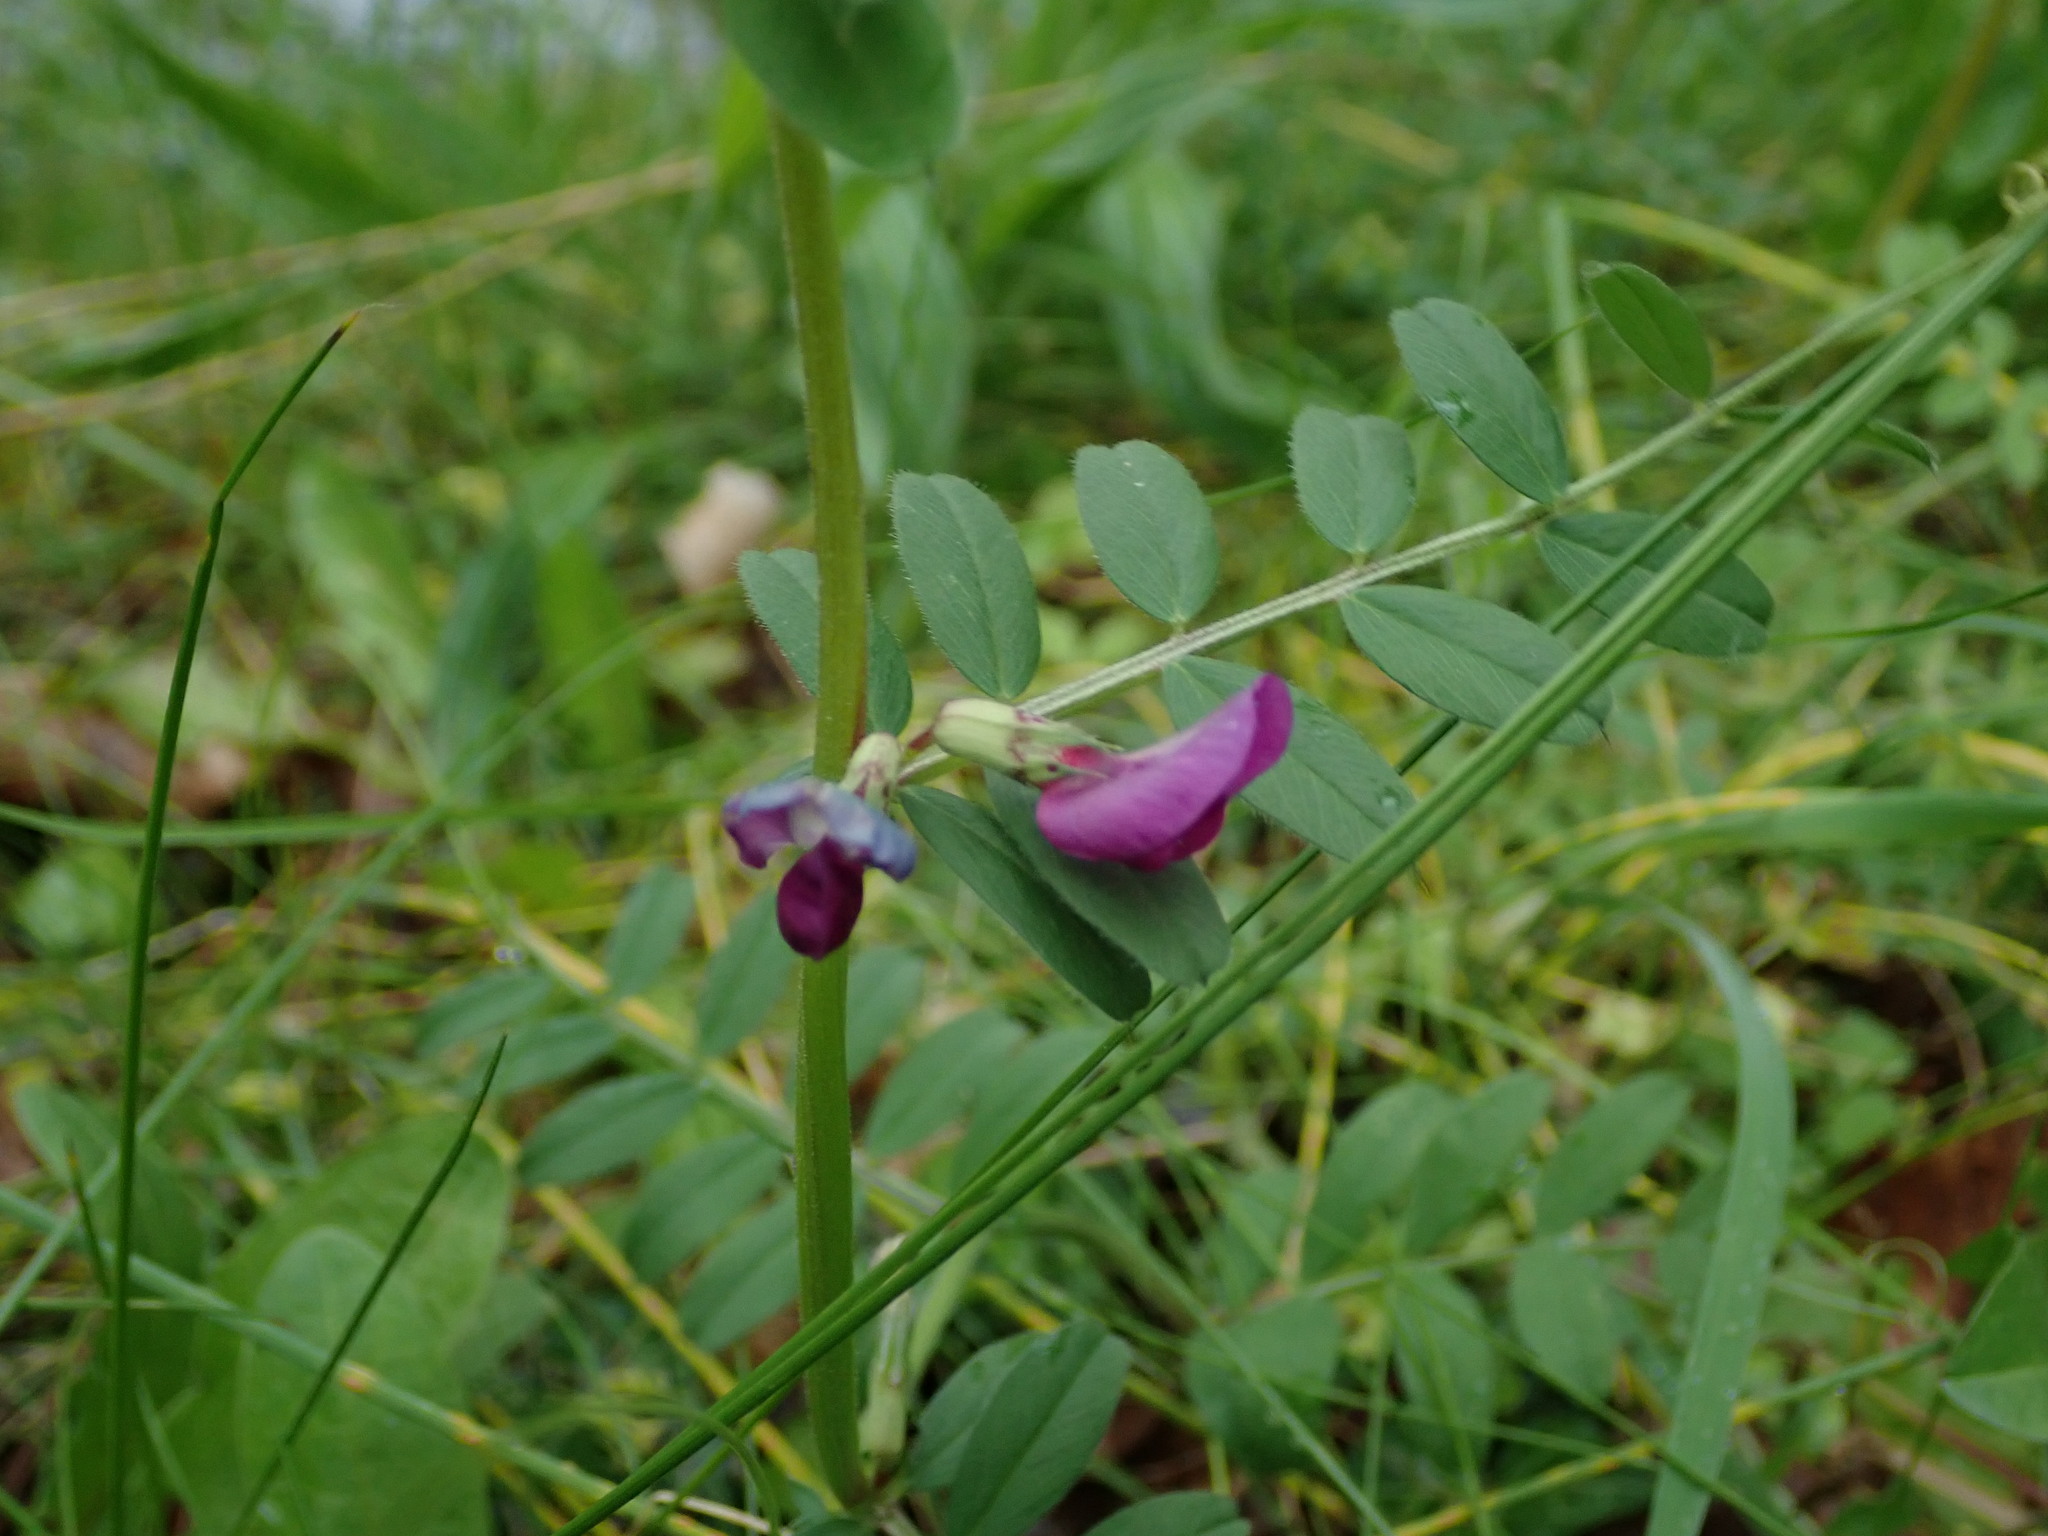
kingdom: Plantae
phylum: Tracheophyta
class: Magnoliopsida
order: Fabales
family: Fabaceae
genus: Vicia
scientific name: Vicia sativa
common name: Garden vetch
